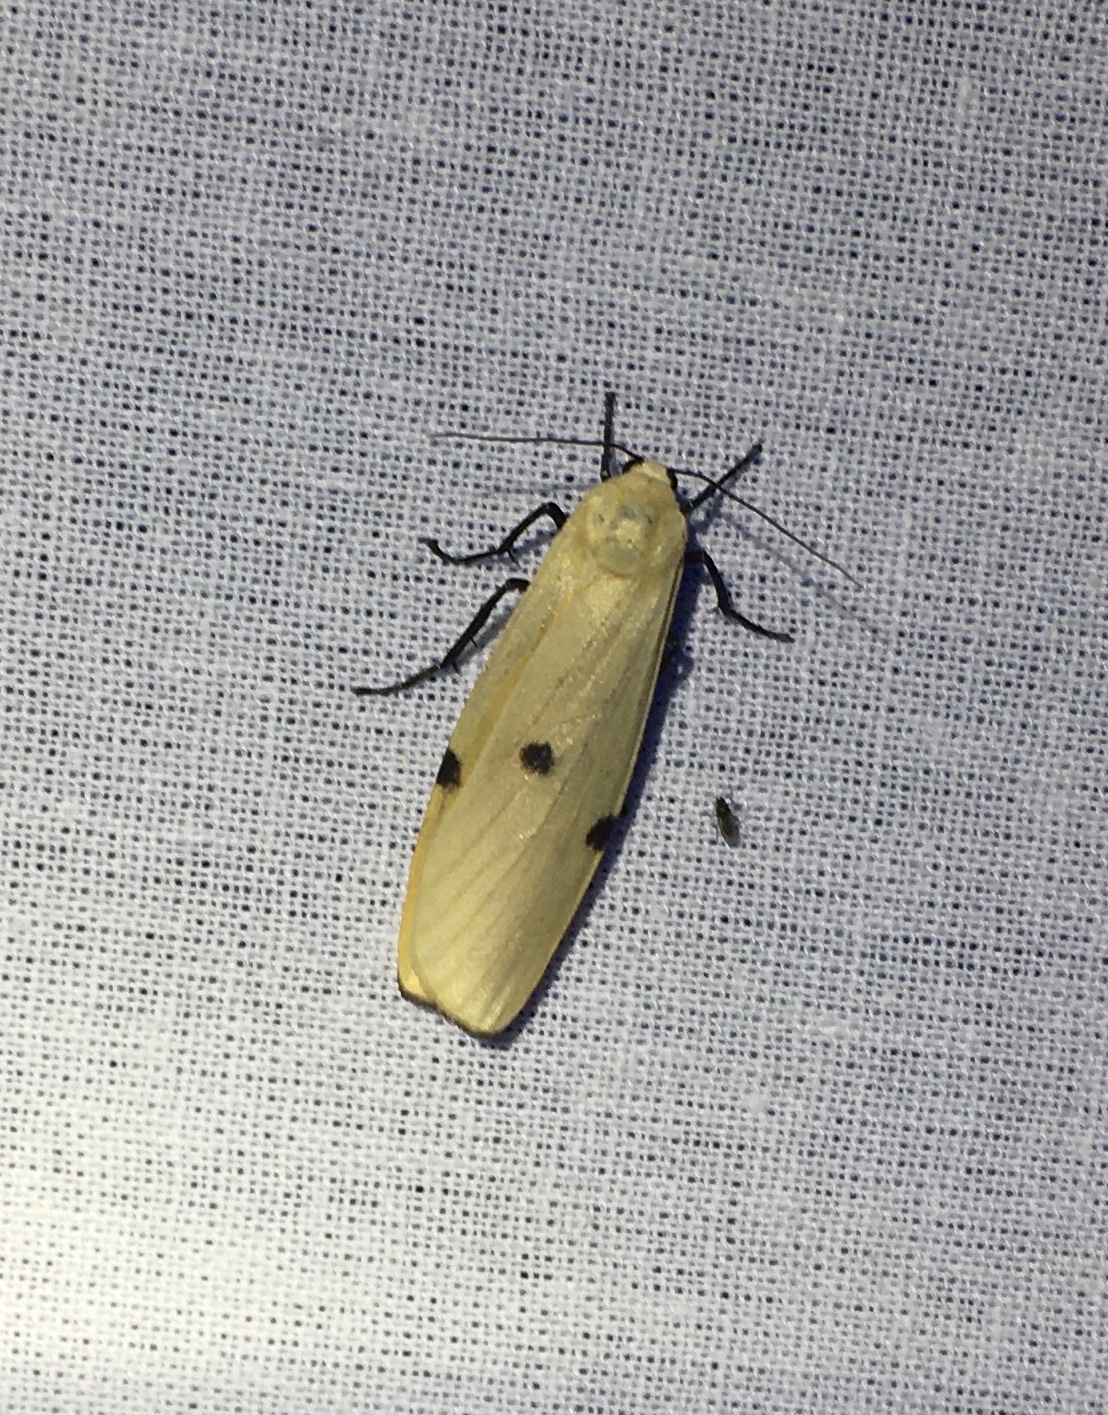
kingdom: Animalia
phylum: Arthropoda
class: Insecta
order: Lepidoptera
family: Erebidae
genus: Lithosia
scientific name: Lithosia quadra
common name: Four-spotted footman
